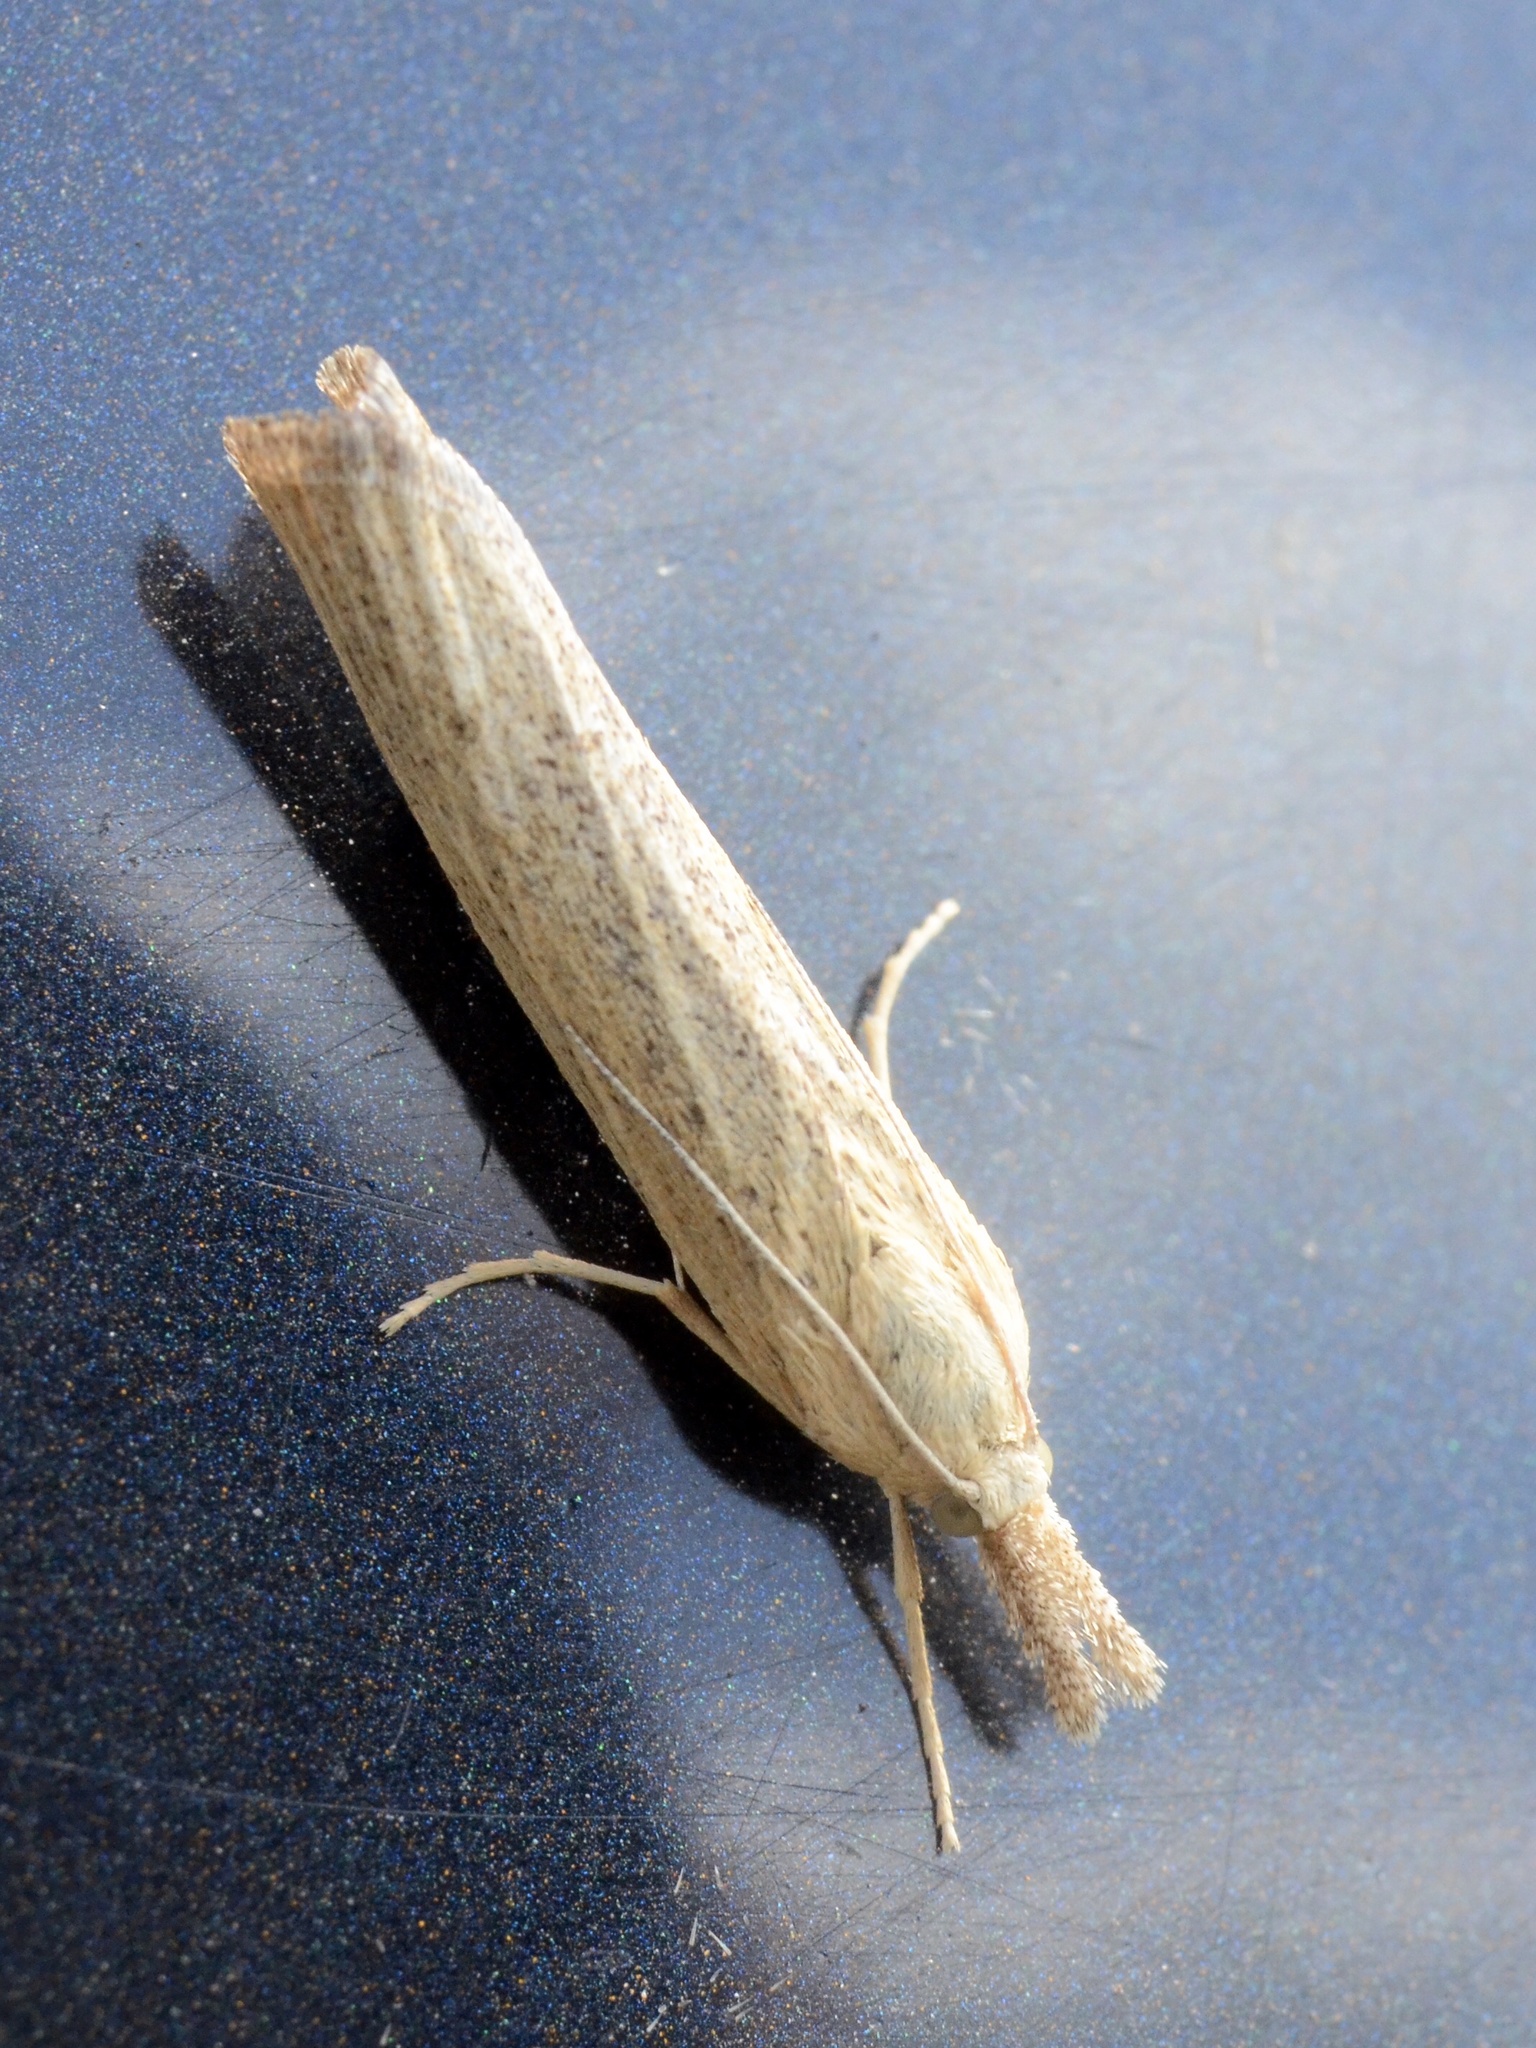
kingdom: Animalia
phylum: Arthropoda
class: Insecta
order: Lepidoptera
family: Crambidae
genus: Pediasia
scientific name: Pediasia luteella
